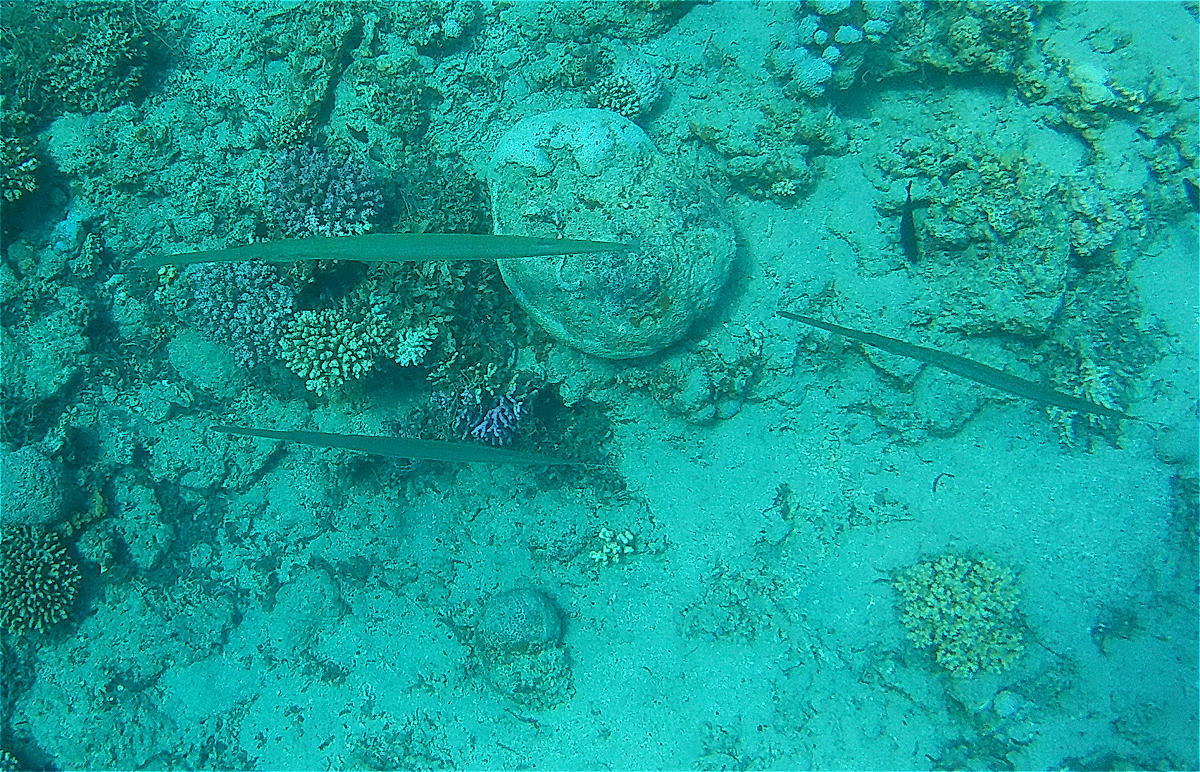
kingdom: Animalia
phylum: Chordata
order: Syngnathiformes
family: Fistulariidae
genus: Fistularia
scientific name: Fistularia commersonii
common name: Bluespotted cornetfish
